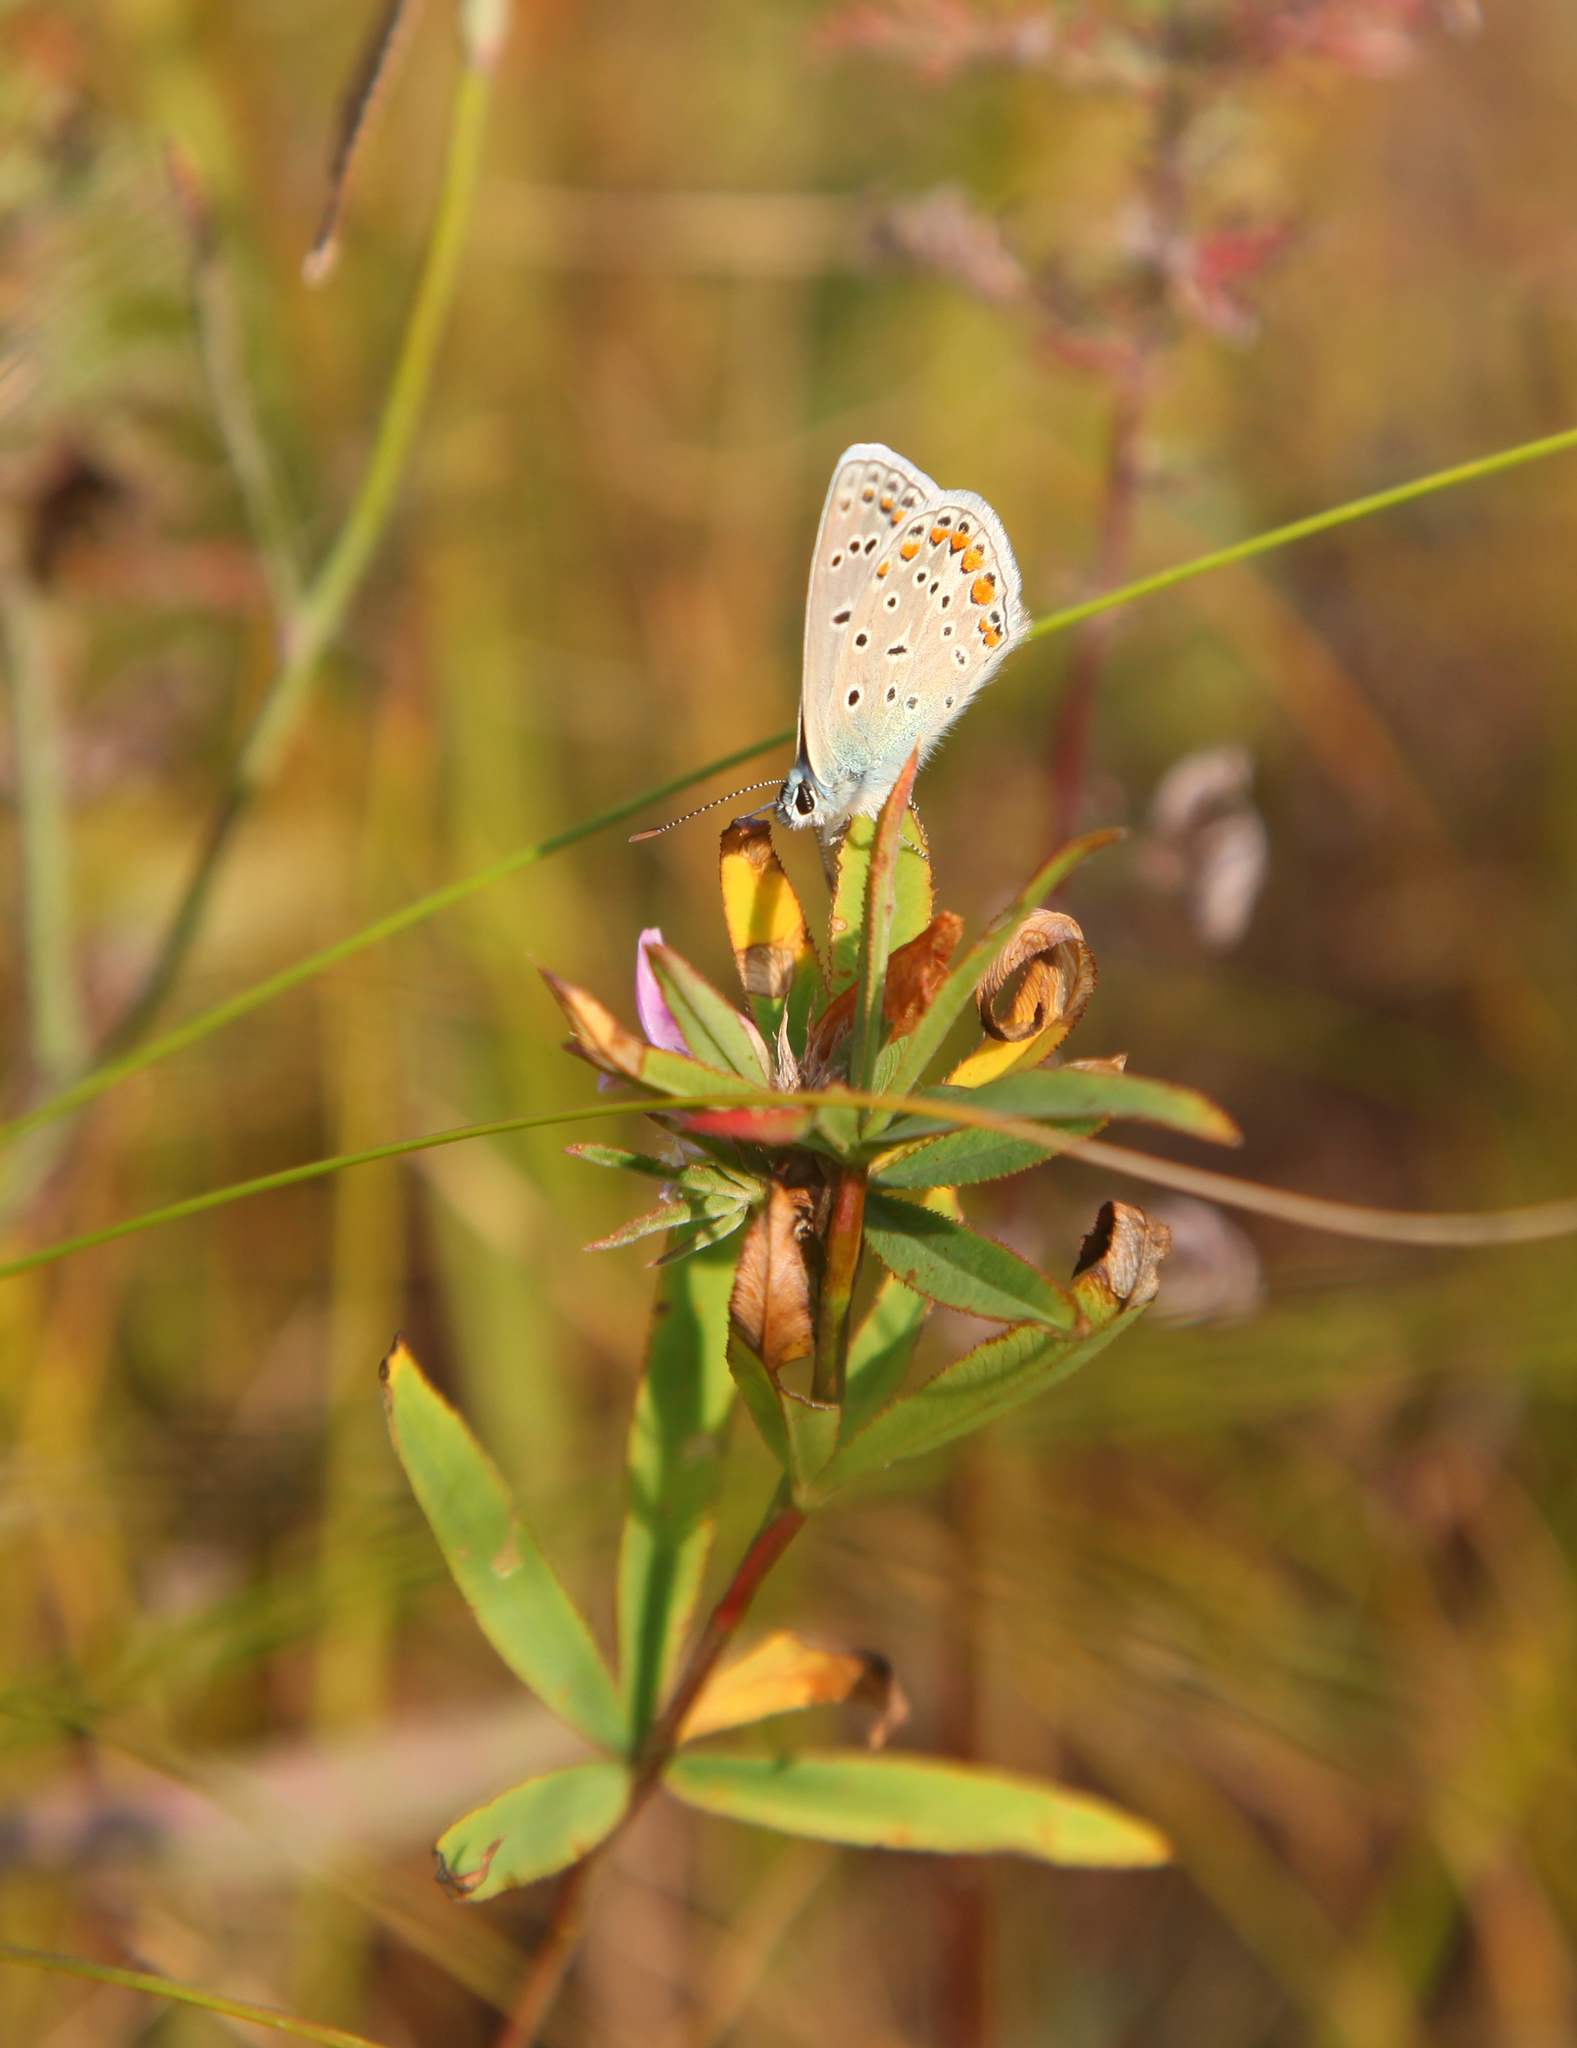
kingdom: Animalia
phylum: Arthropoda
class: Insecta
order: Lepidoptera
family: Lycaenidae
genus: Polyommatus
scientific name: Polyommatus icarus
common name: Common blue
